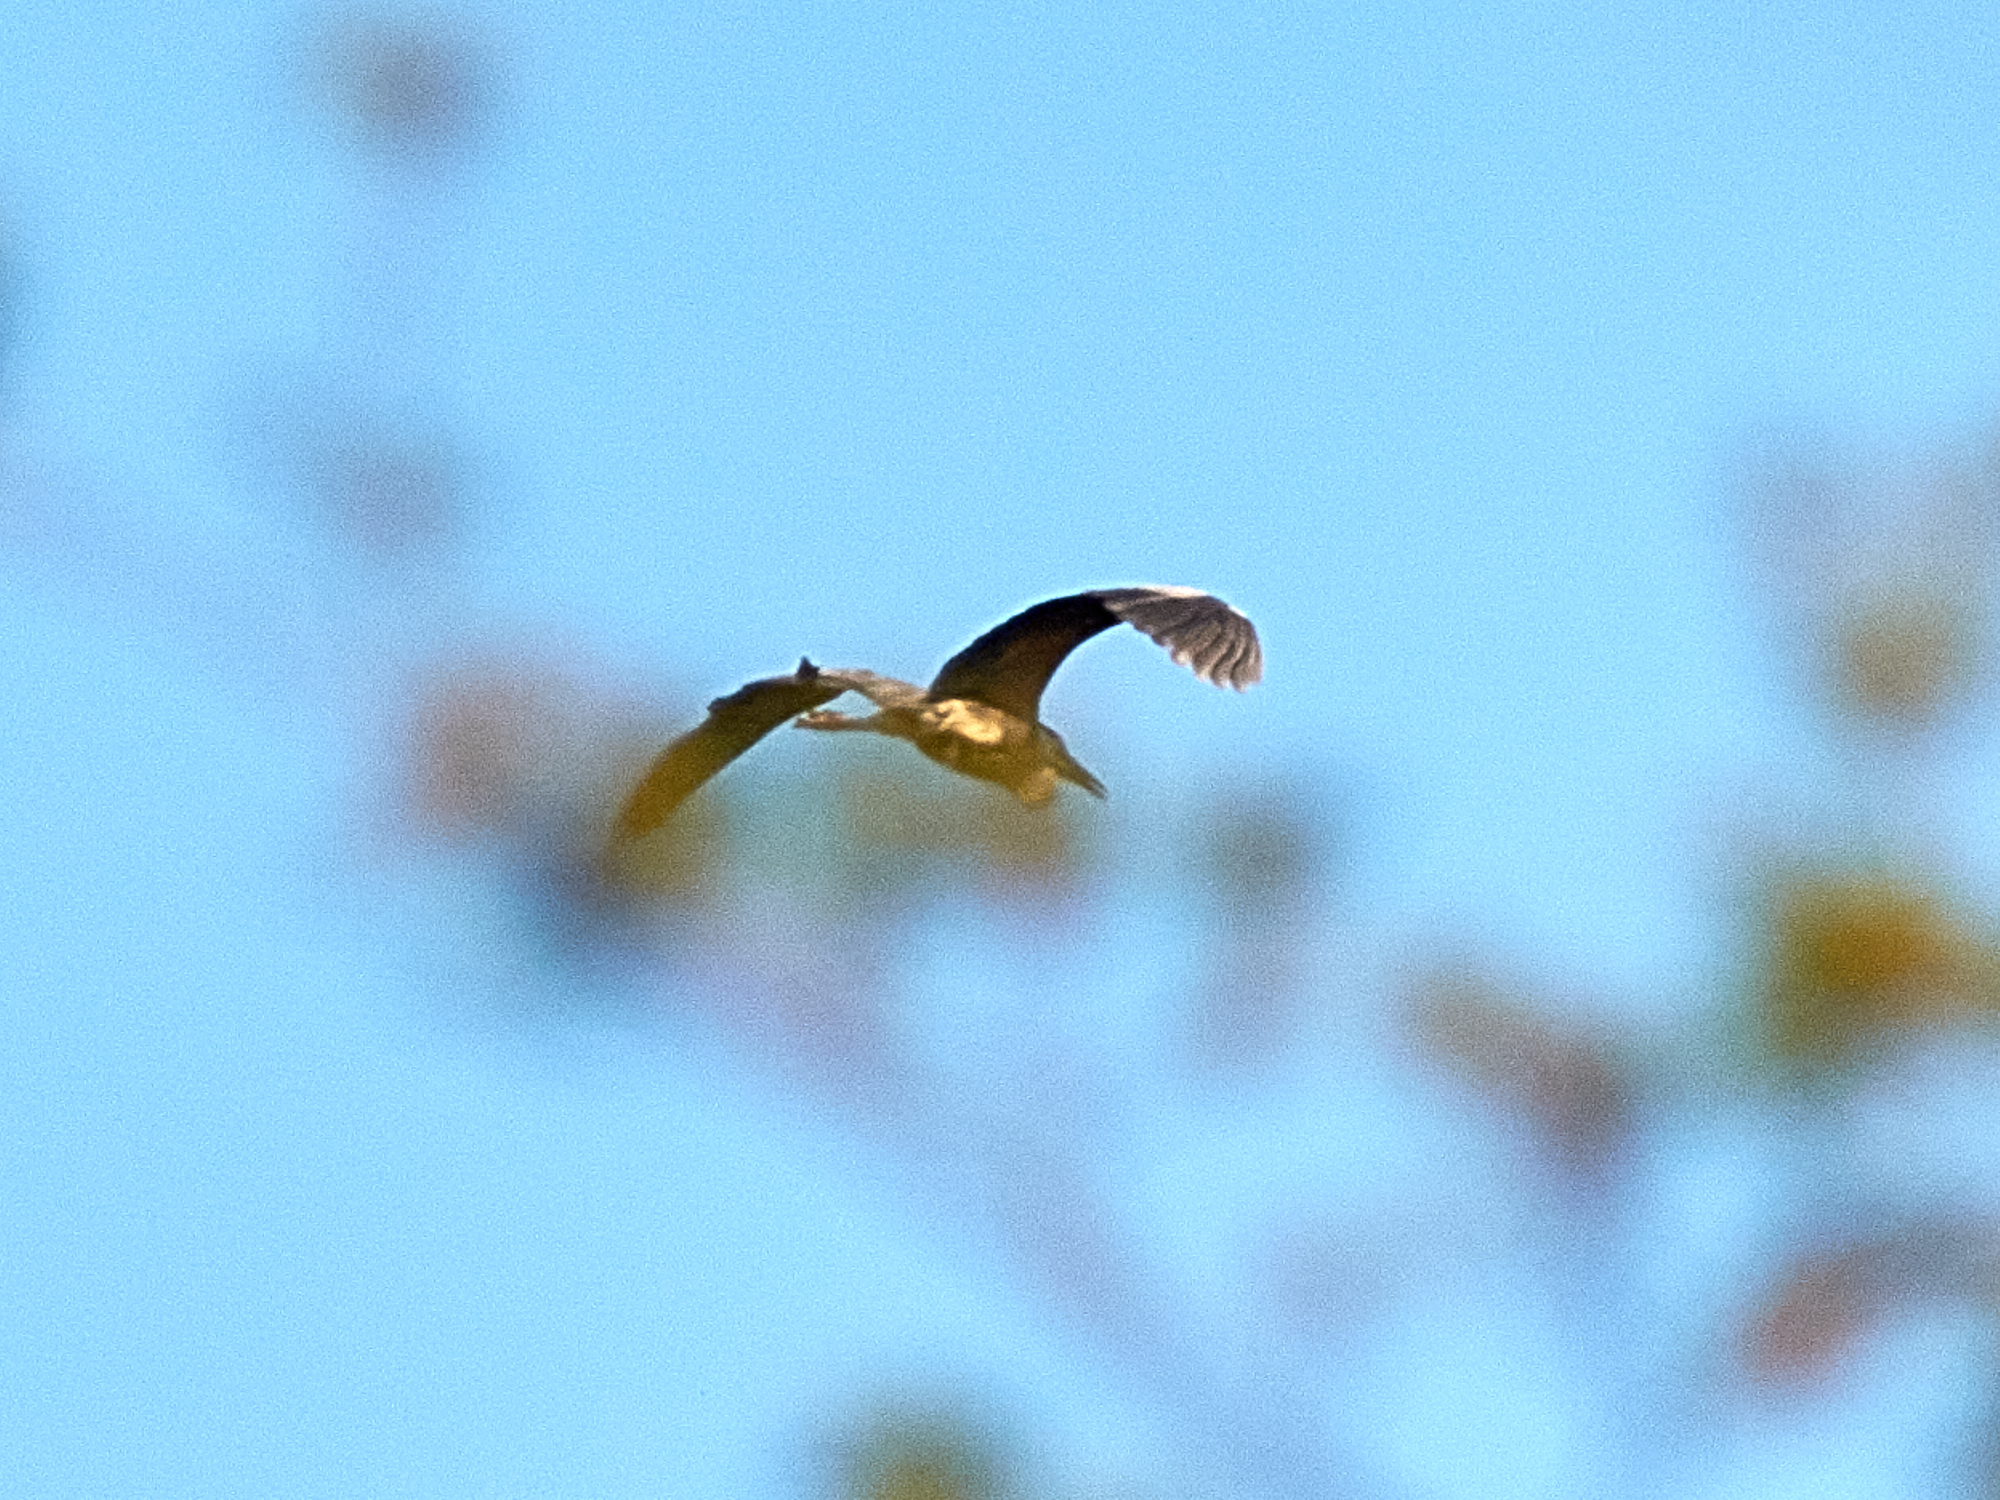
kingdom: Animalia
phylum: Chordata
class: Aves
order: Pelecaniformes
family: Ardeidae
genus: Ardea
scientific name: Ardea cinerea
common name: Grey heron
